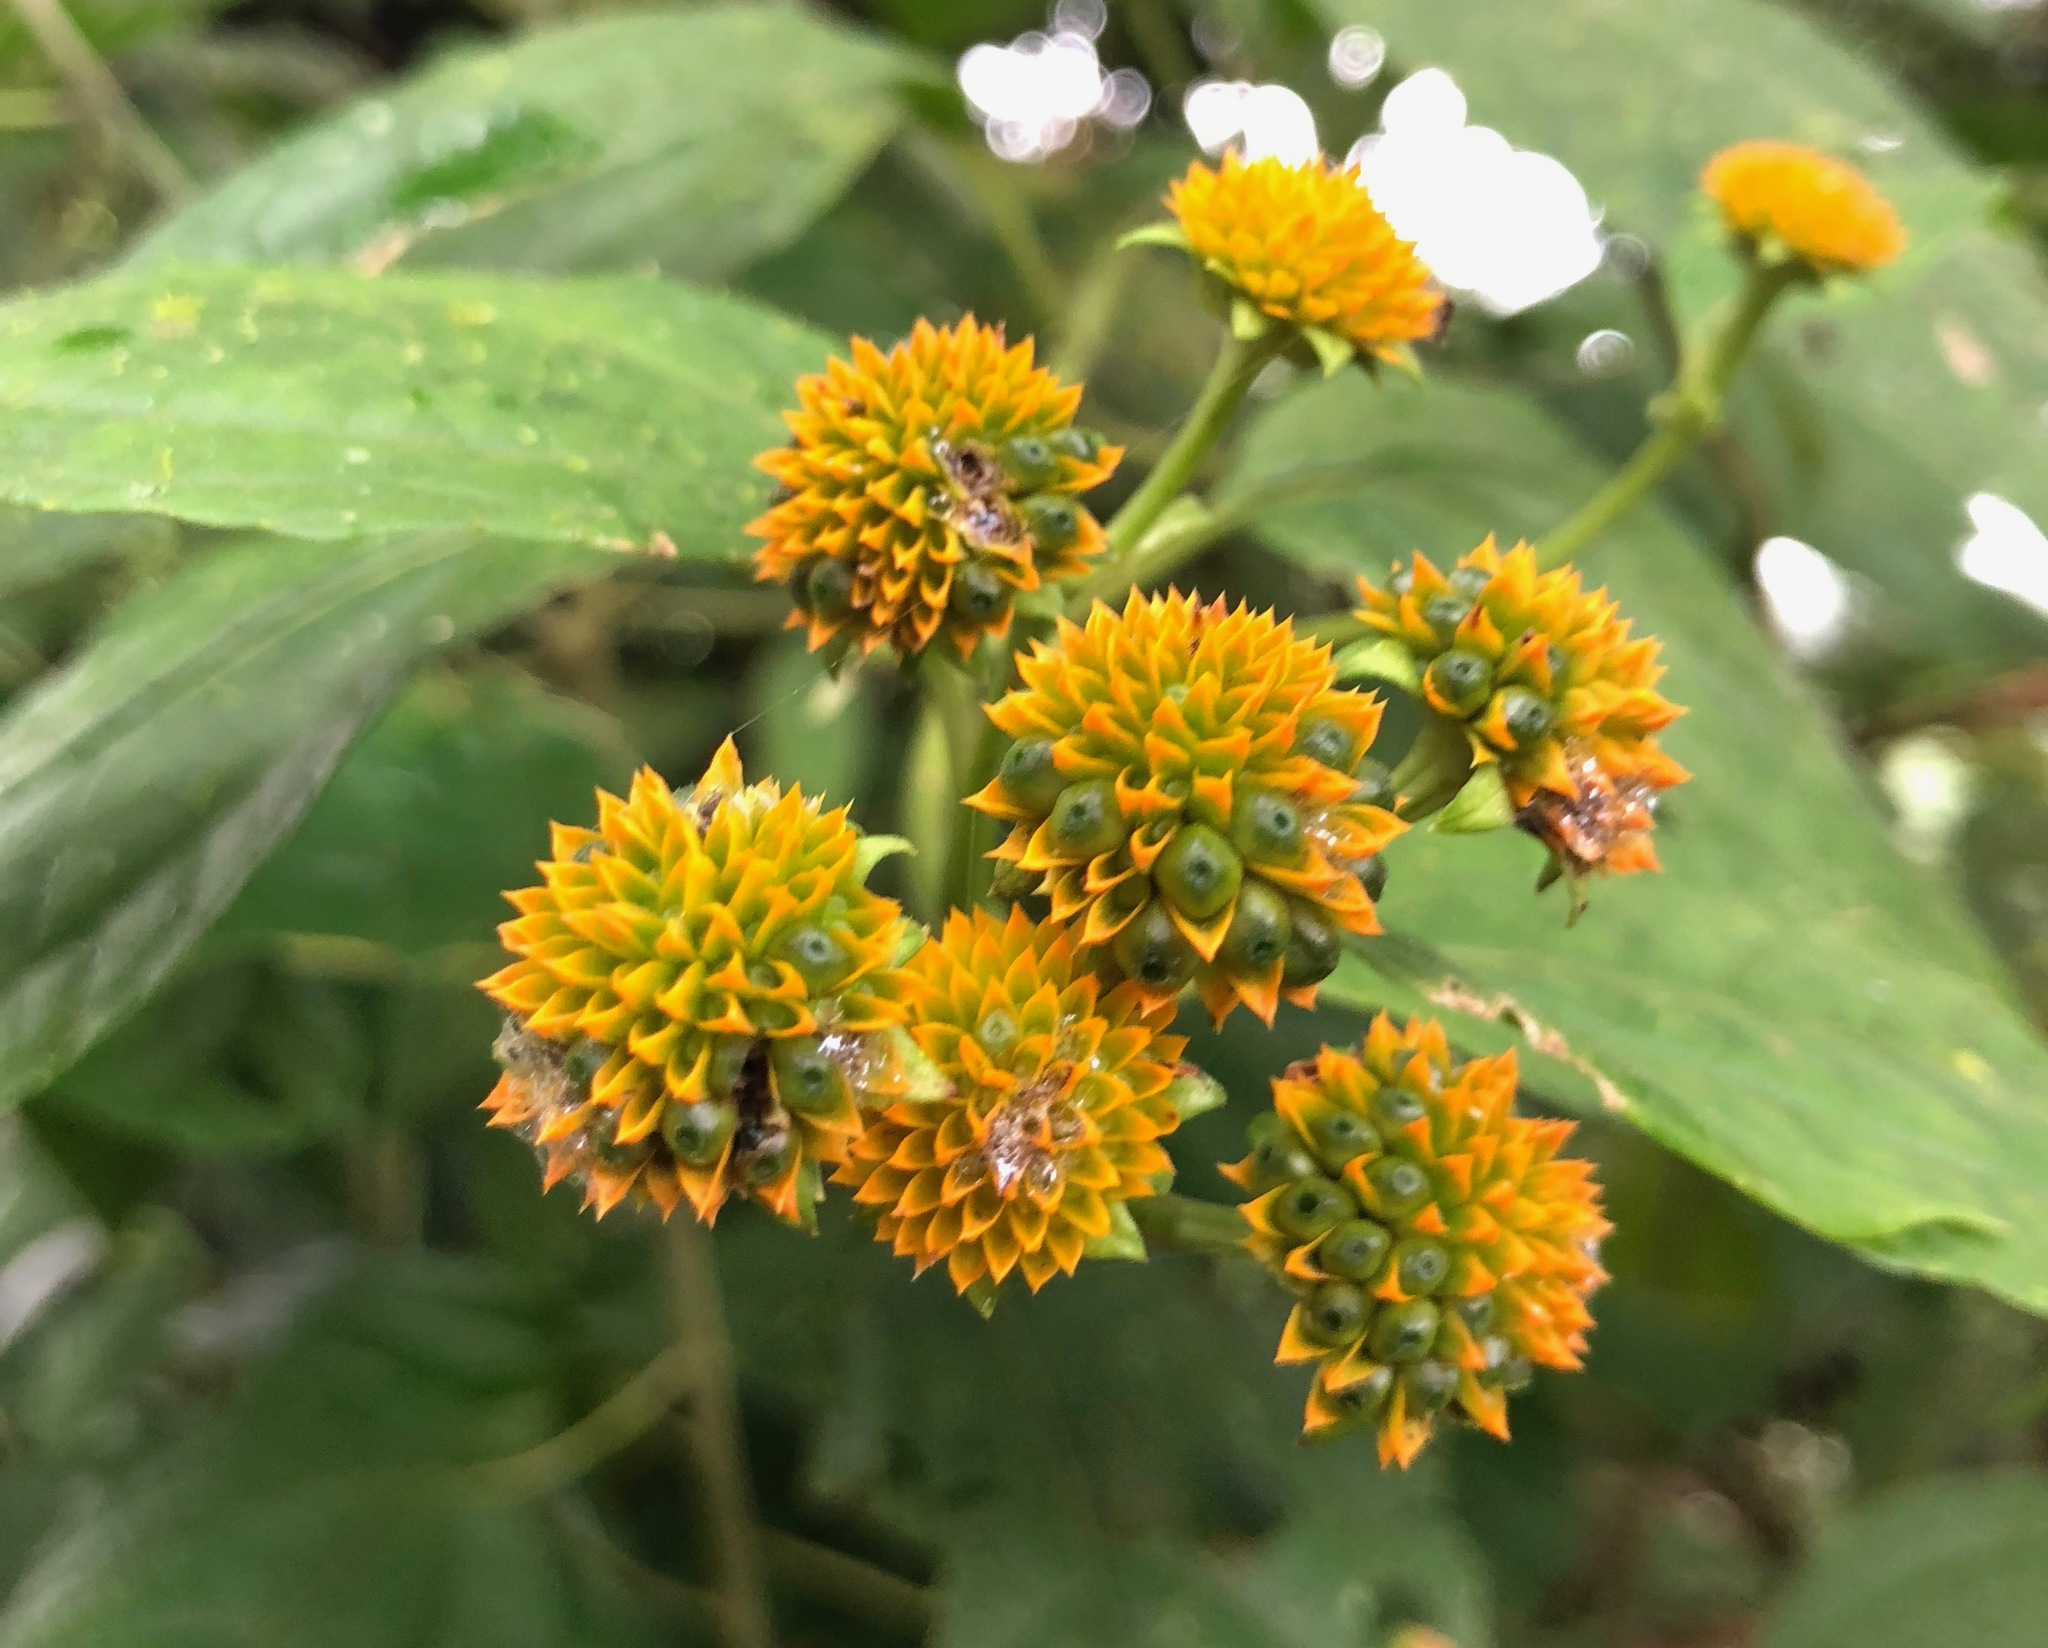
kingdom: Plantae
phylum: Tracheophyta
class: Magnoliopsida
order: Asterales
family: Asteraceae
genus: Tilesia
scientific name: Tilesia baccata
